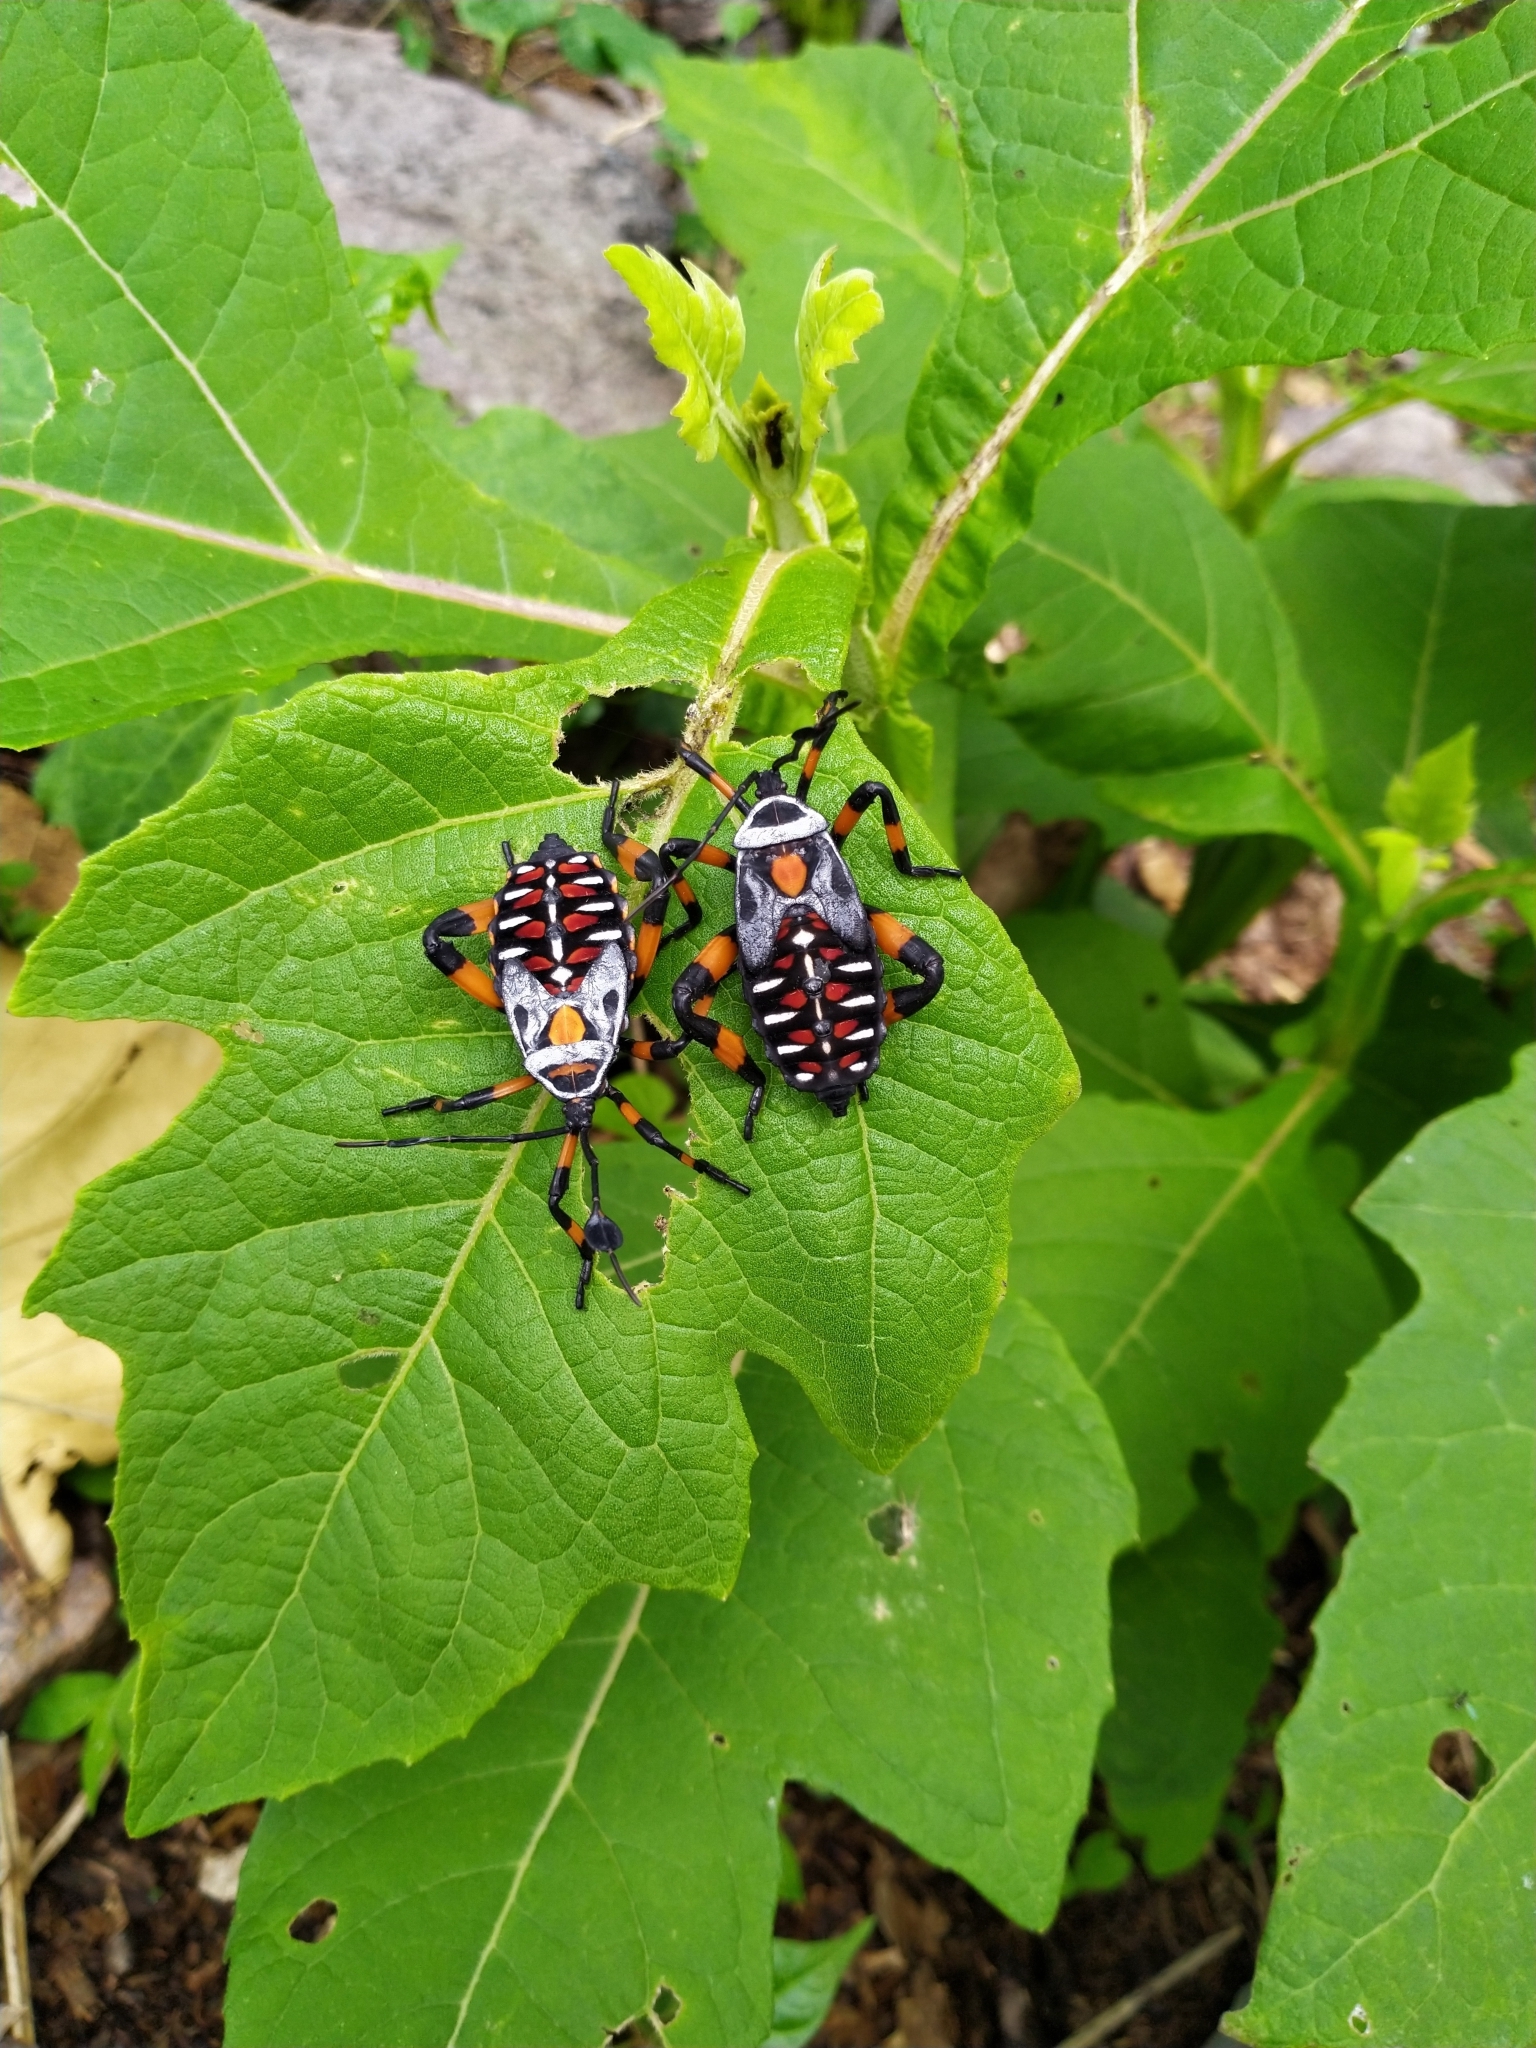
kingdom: Animalia
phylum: Arthropoda
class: Insecta
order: Hemiptera
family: Coreidae
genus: Thasus
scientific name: Thasus
